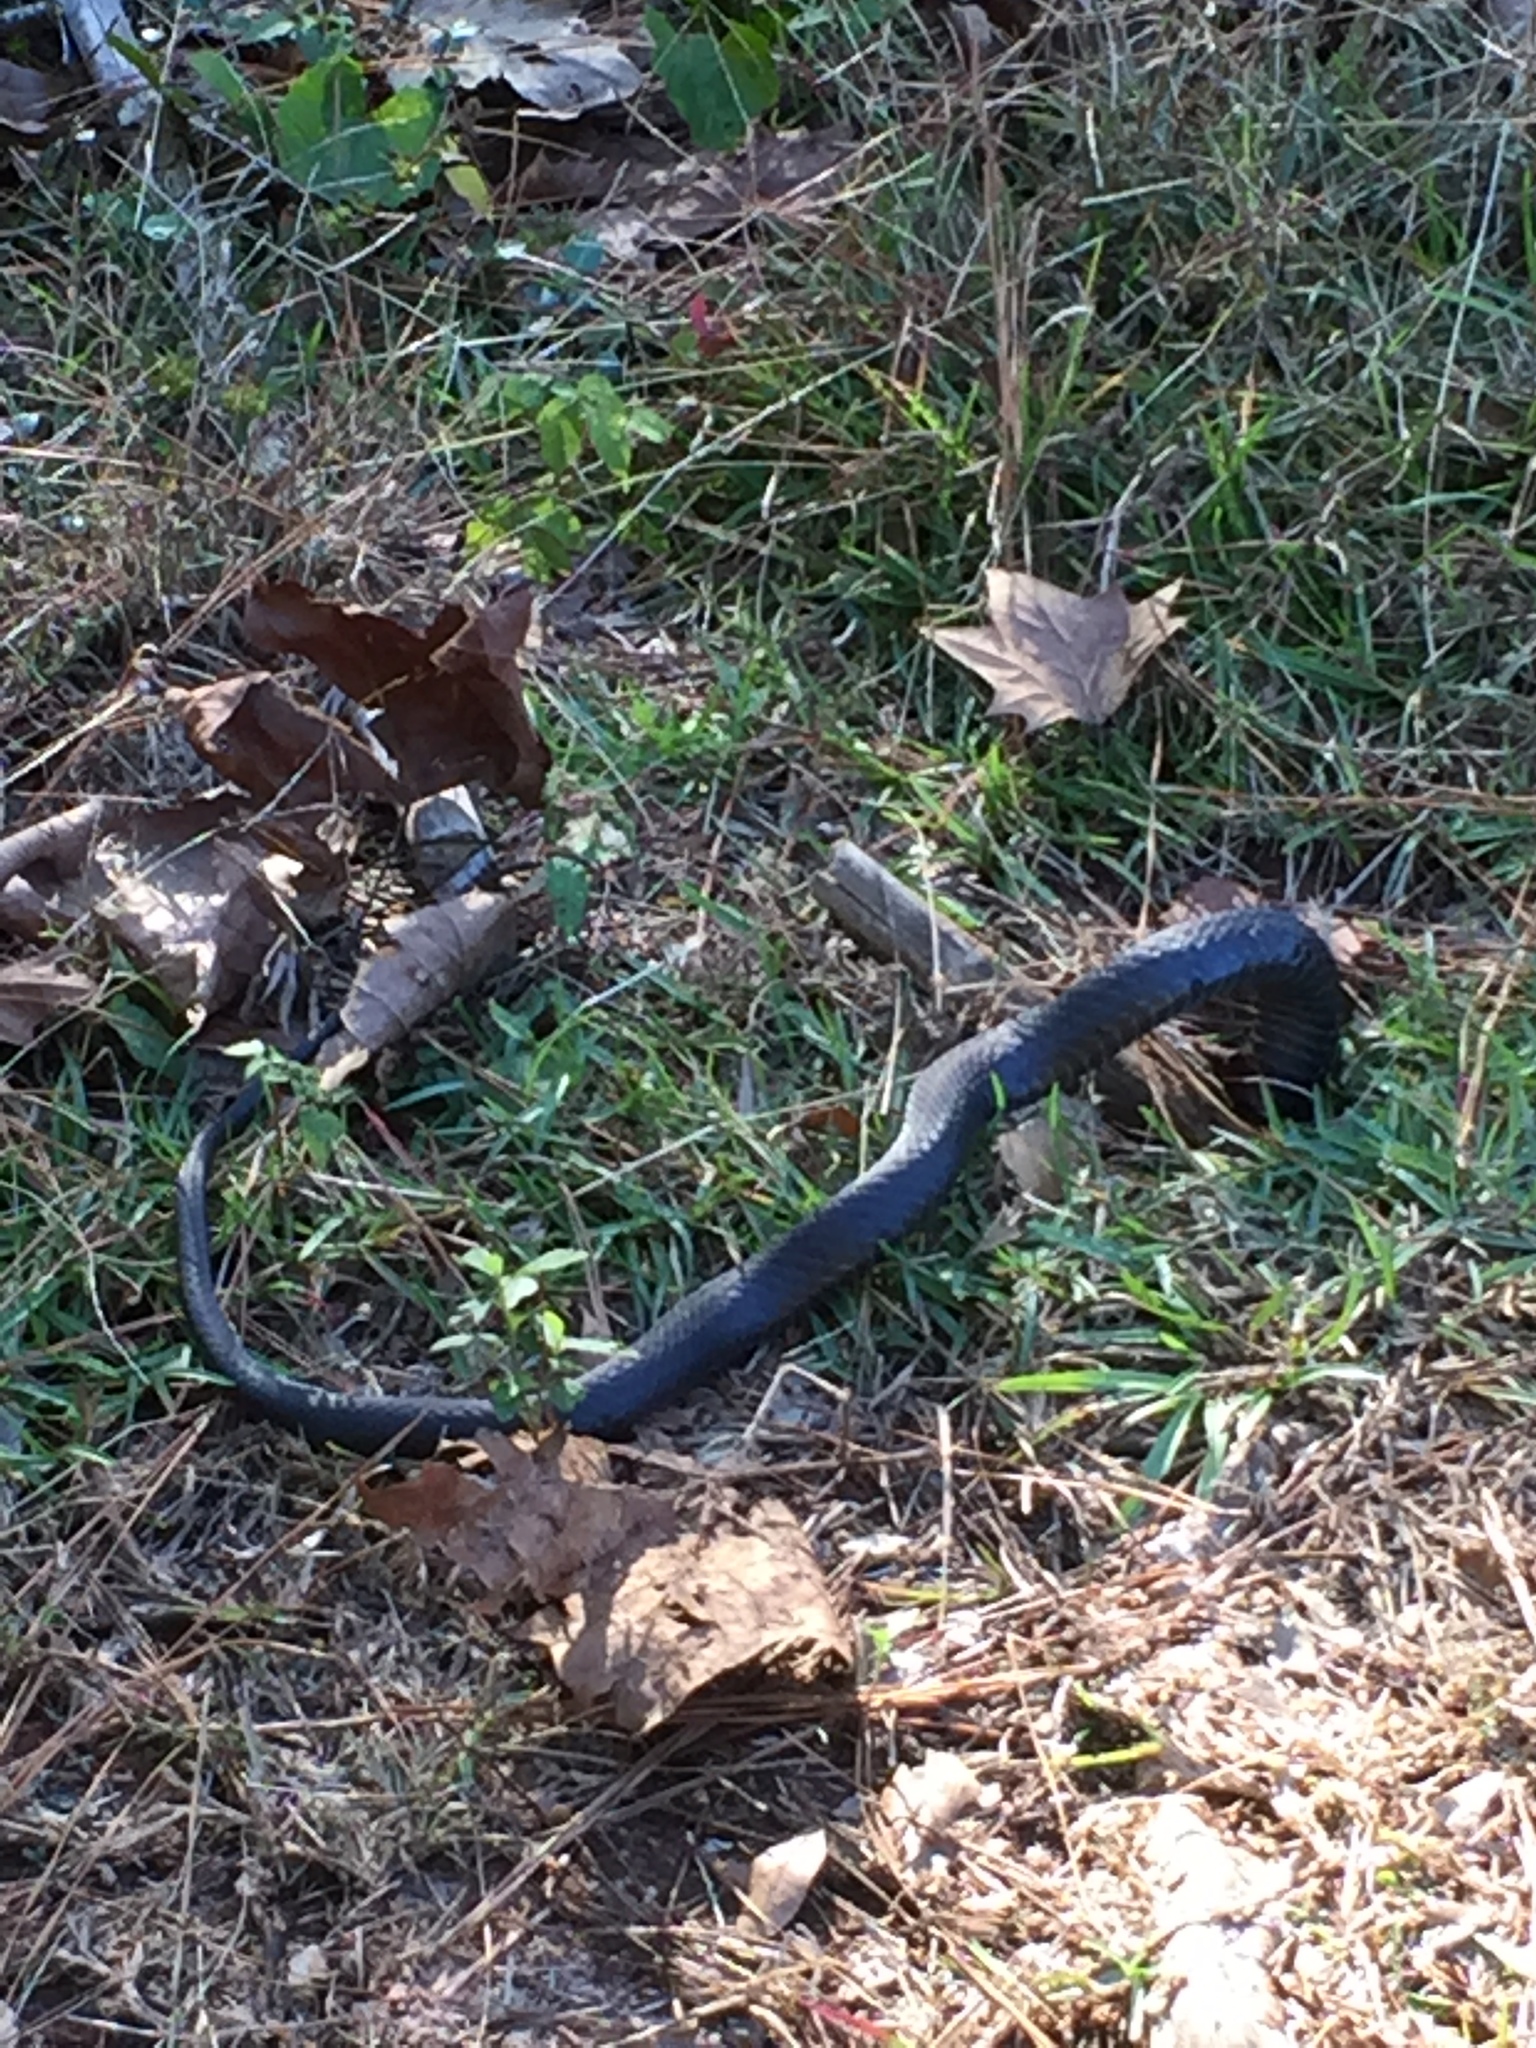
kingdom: Animalia
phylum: Chordata
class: Squamata
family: Colubridae
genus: Coluber
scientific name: Coluber constrictor
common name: Eastern racer
